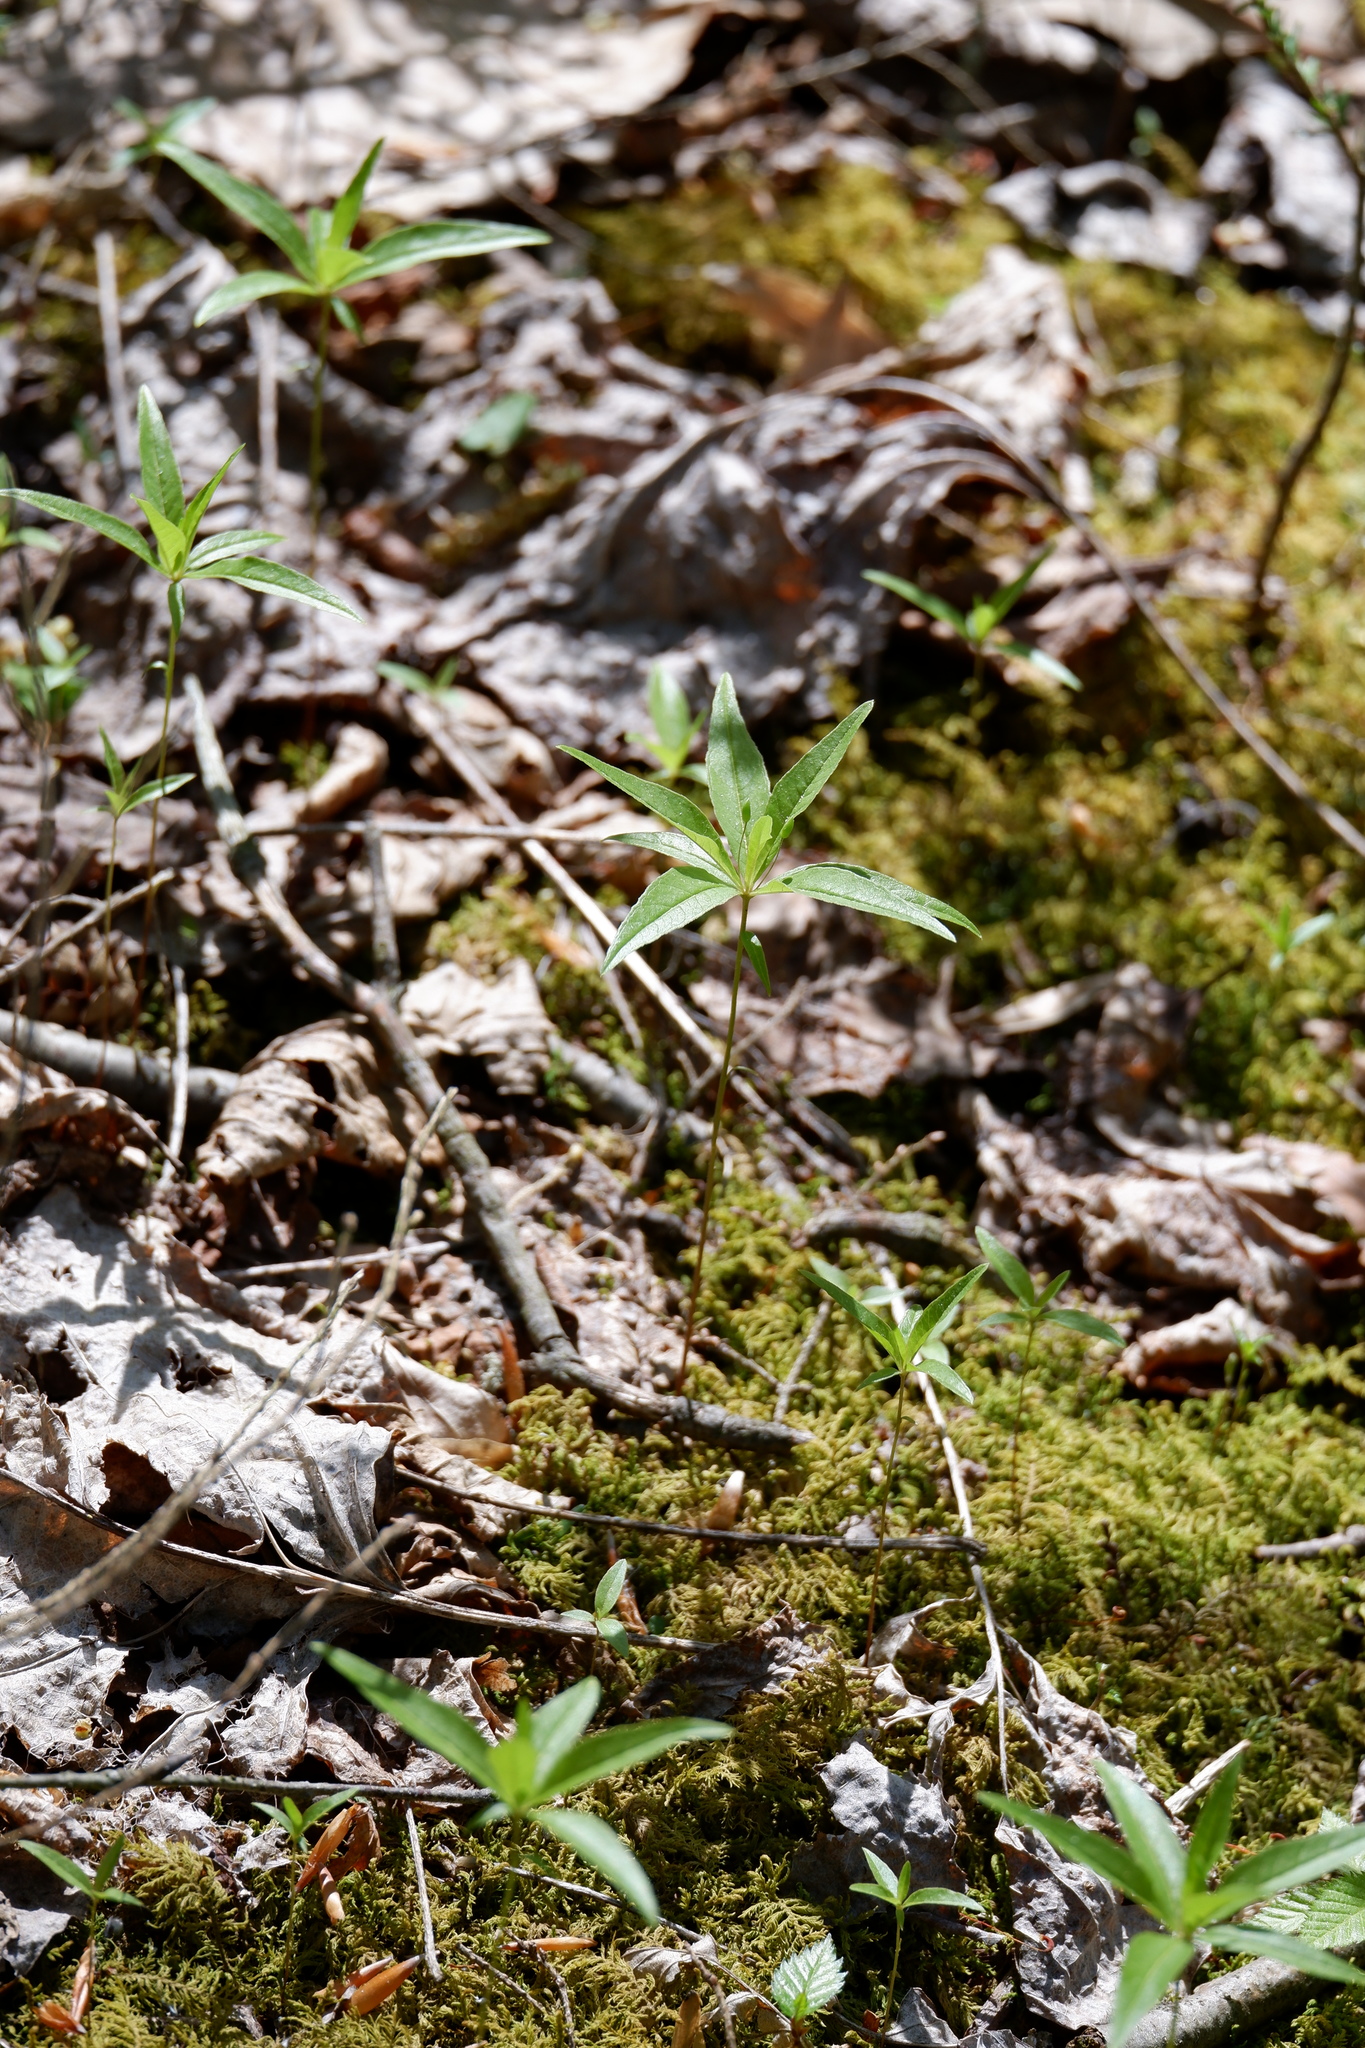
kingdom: Plantae
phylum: Tracheophyta
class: Magnoliopsida
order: Ericales
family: Primulaceae
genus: Lysimachia
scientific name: Lysimachia borealis
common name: American starflower
